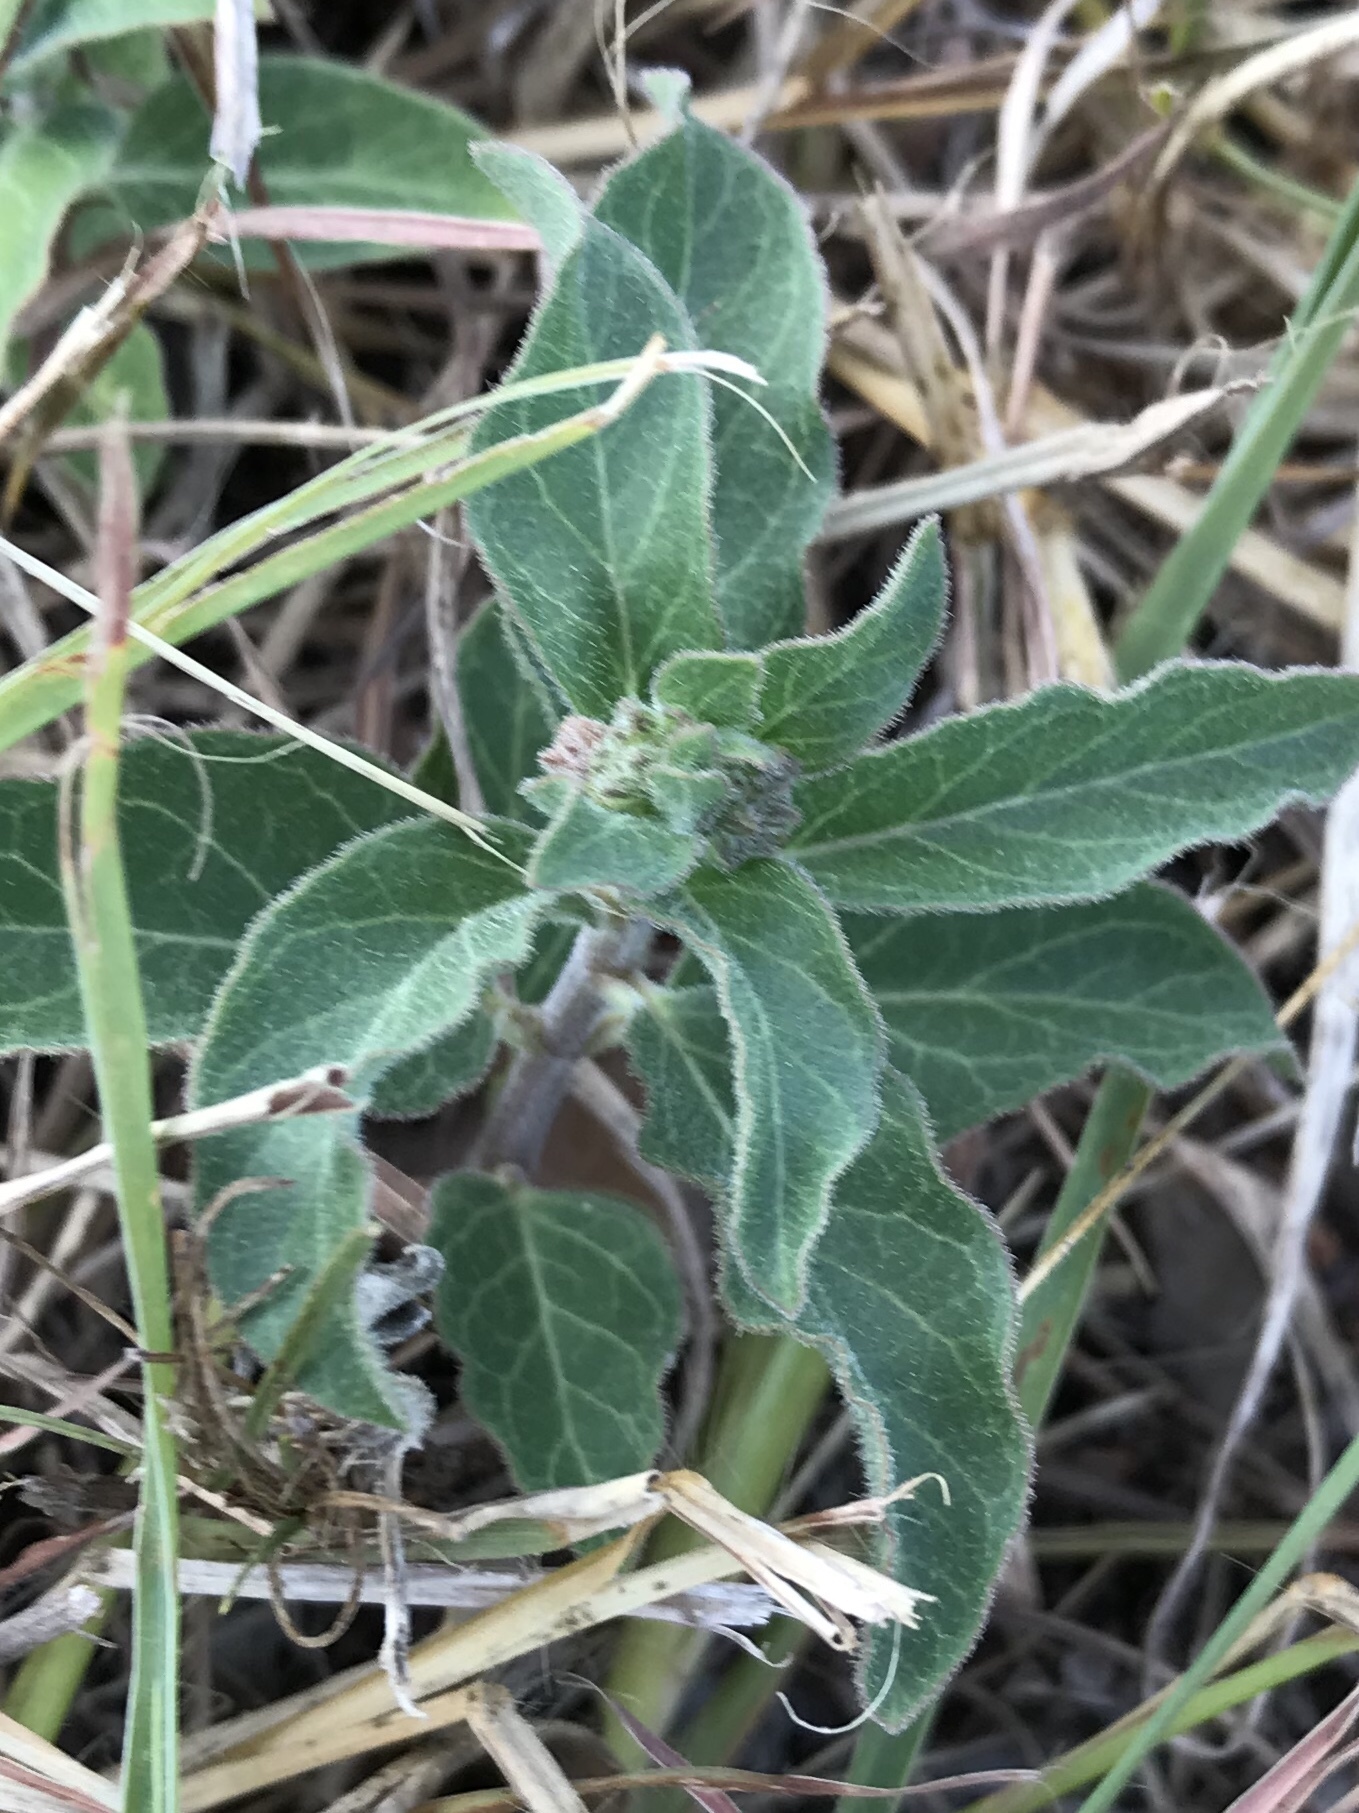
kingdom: Plantae
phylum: Tracheophyta
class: Magnoliopsida
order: Gentianales
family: Apocynaceae
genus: Asclepias
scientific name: Asclepias oenotheroides
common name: Zizotes milkweed
